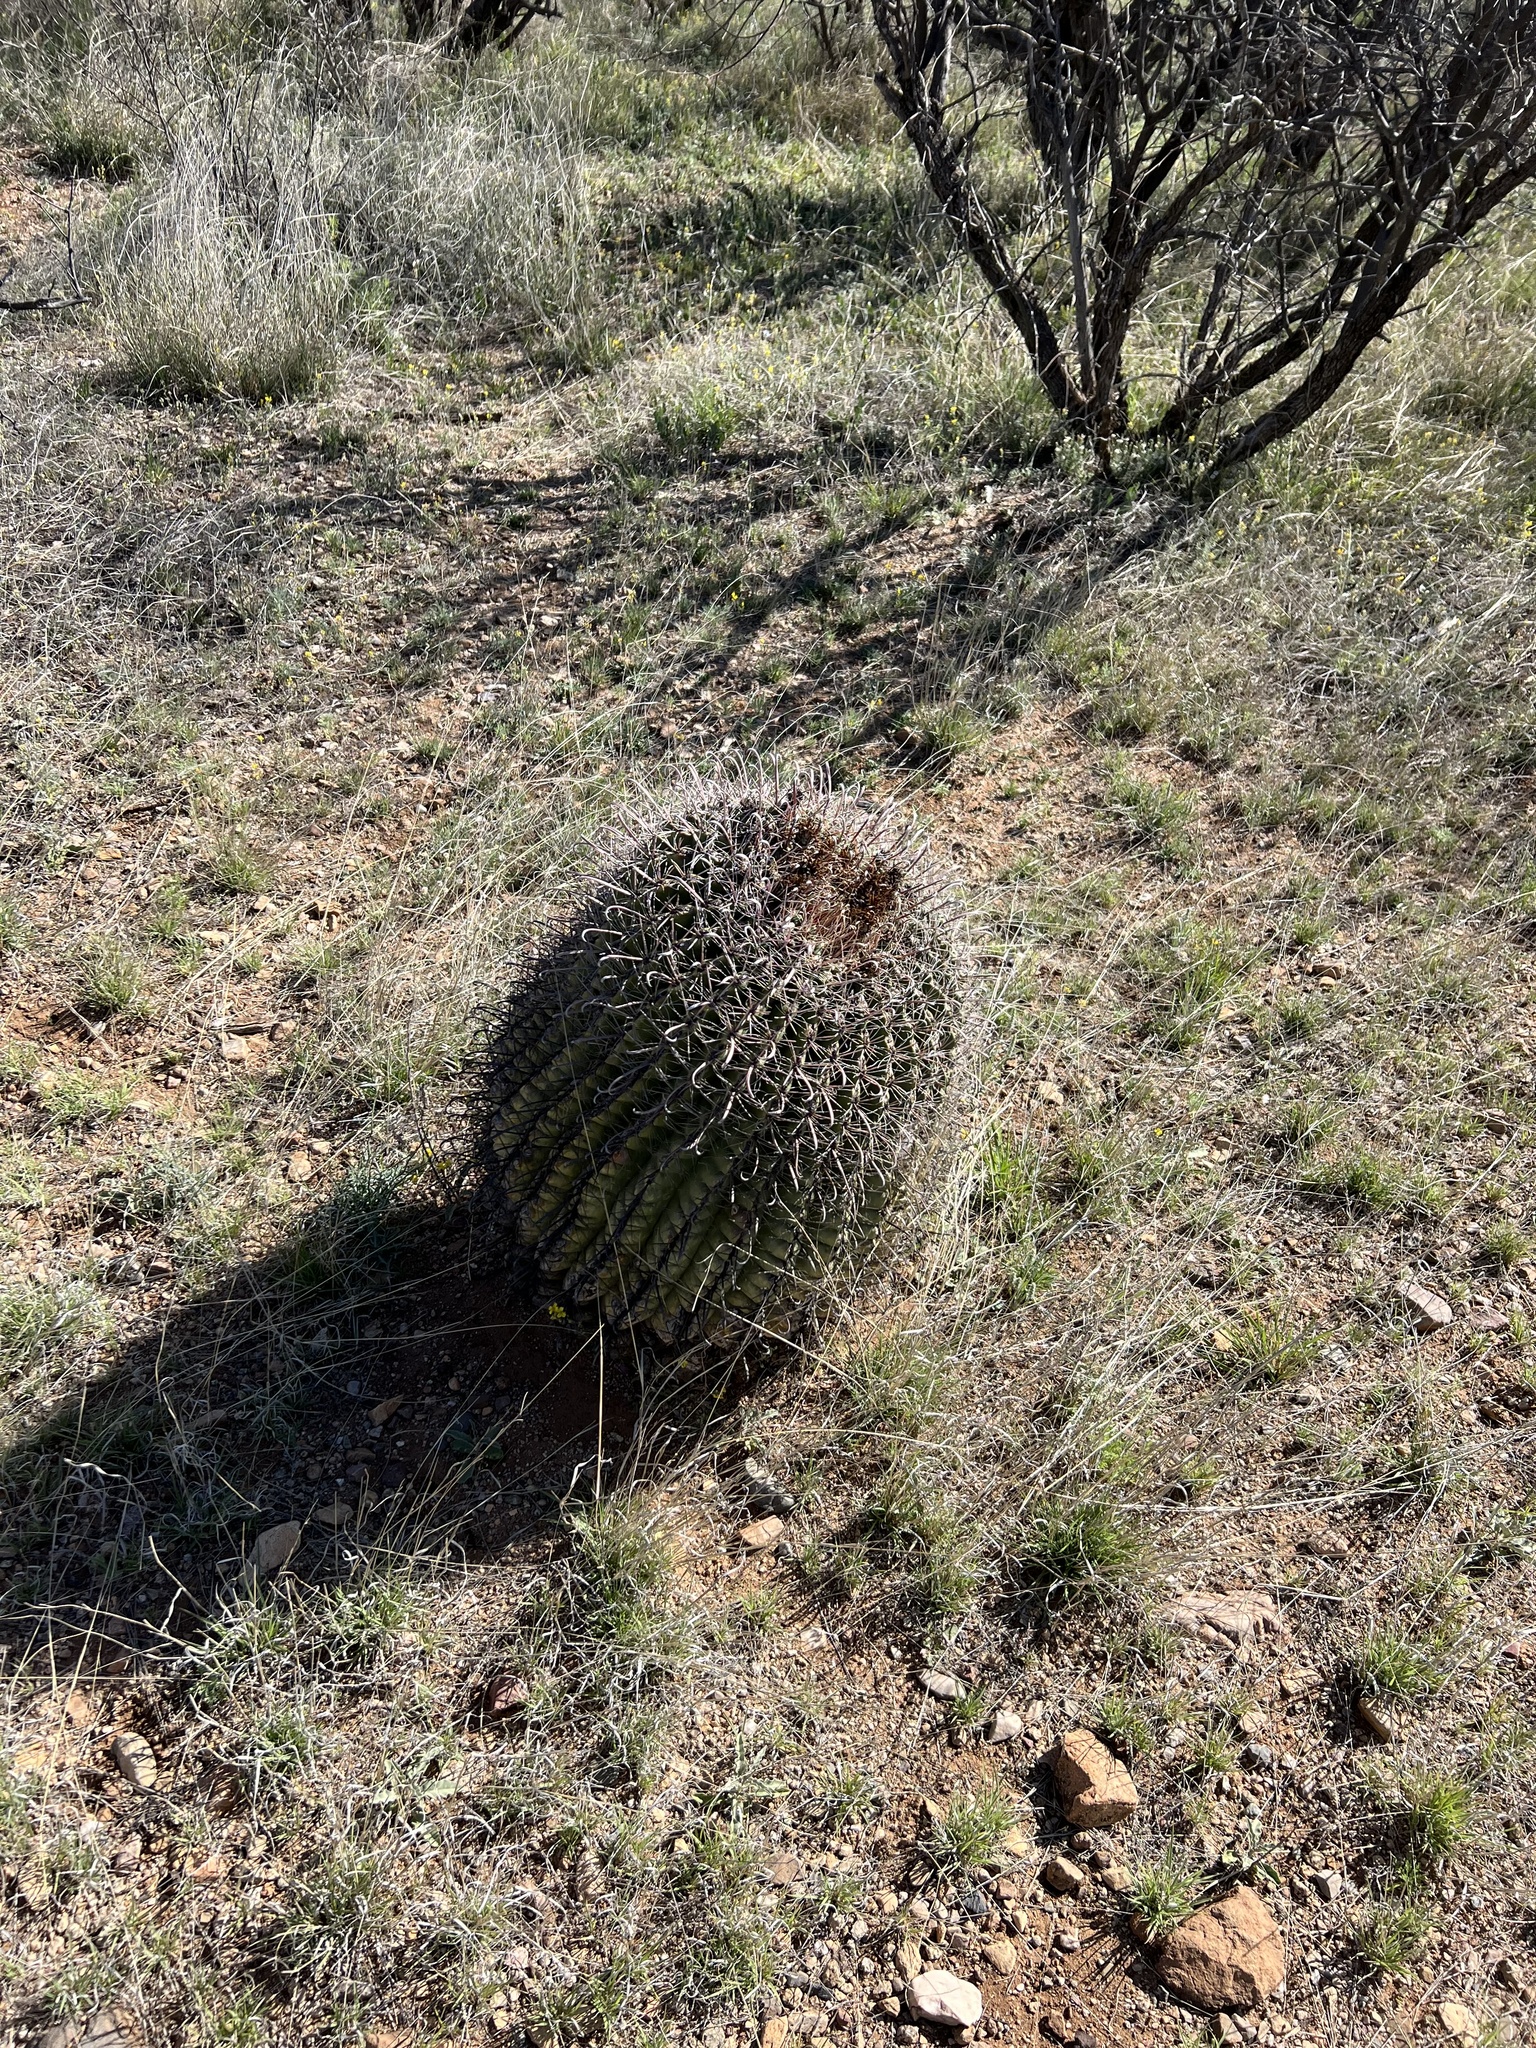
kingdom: Plantae
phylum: Tracheophyta
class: Magnoliopsida
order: Caryophyllales
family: Cactaceae
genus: Ferocactus
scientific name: Ferocactus wislizeni
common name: Candy barrel cactus
